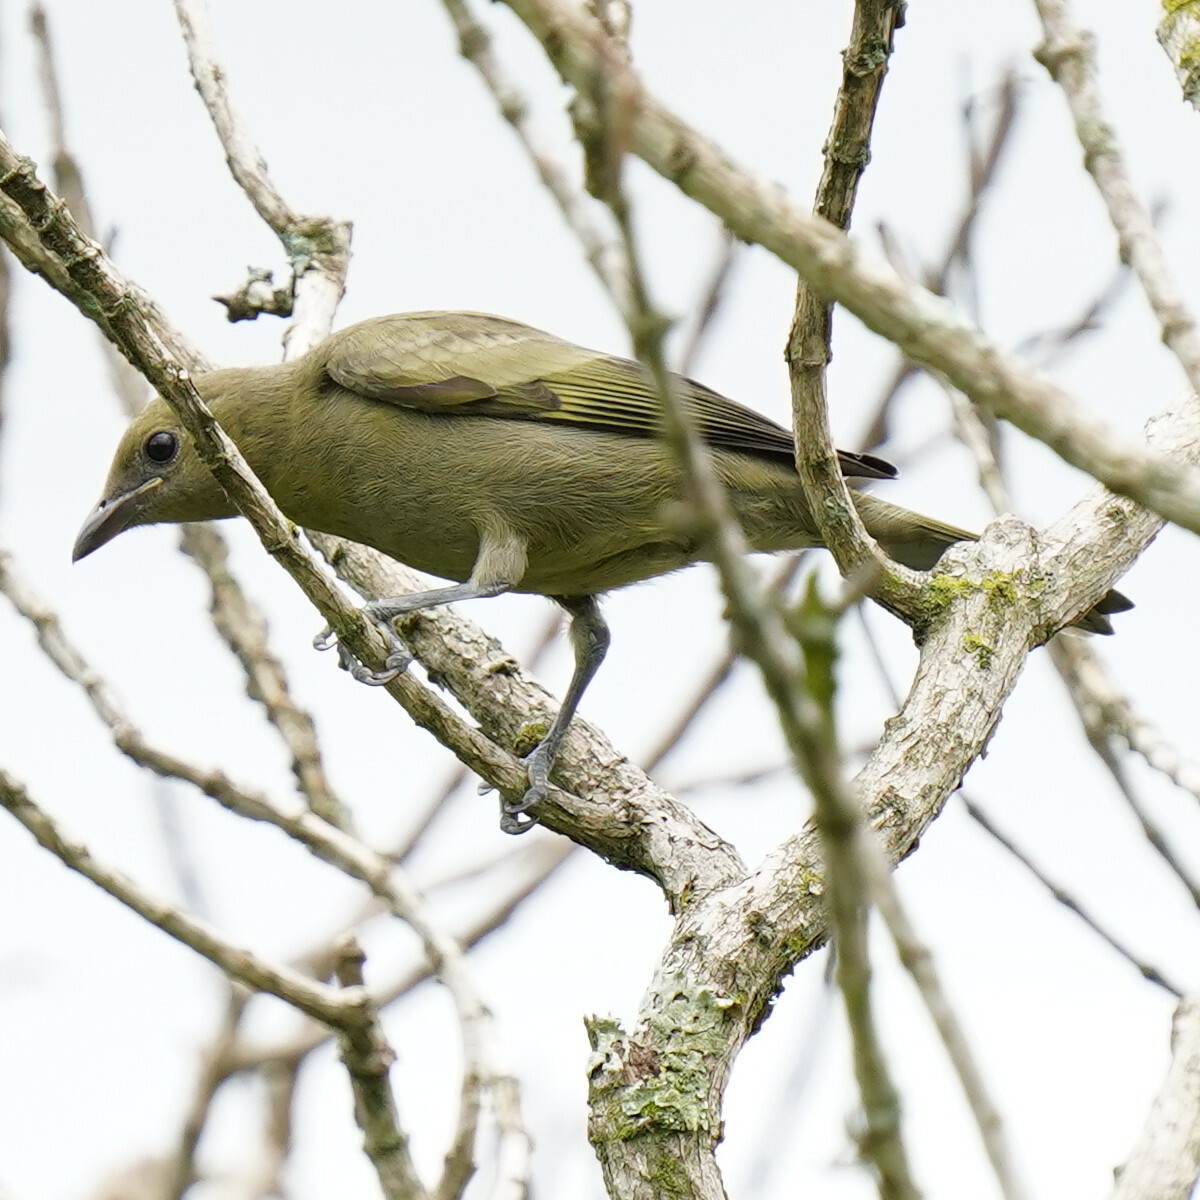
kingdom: Animalia
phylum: Chordata
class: Aves
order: Passeriformes
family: Thraupidae
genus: Thraupis
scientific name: Thraupis palmarum
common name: Palm tanager
